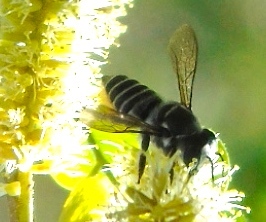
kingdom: Animalia
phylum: Arthropoda
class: Insecta
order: Hymenoptera
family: Megachilidae
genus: Megachile
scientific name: Megachile
